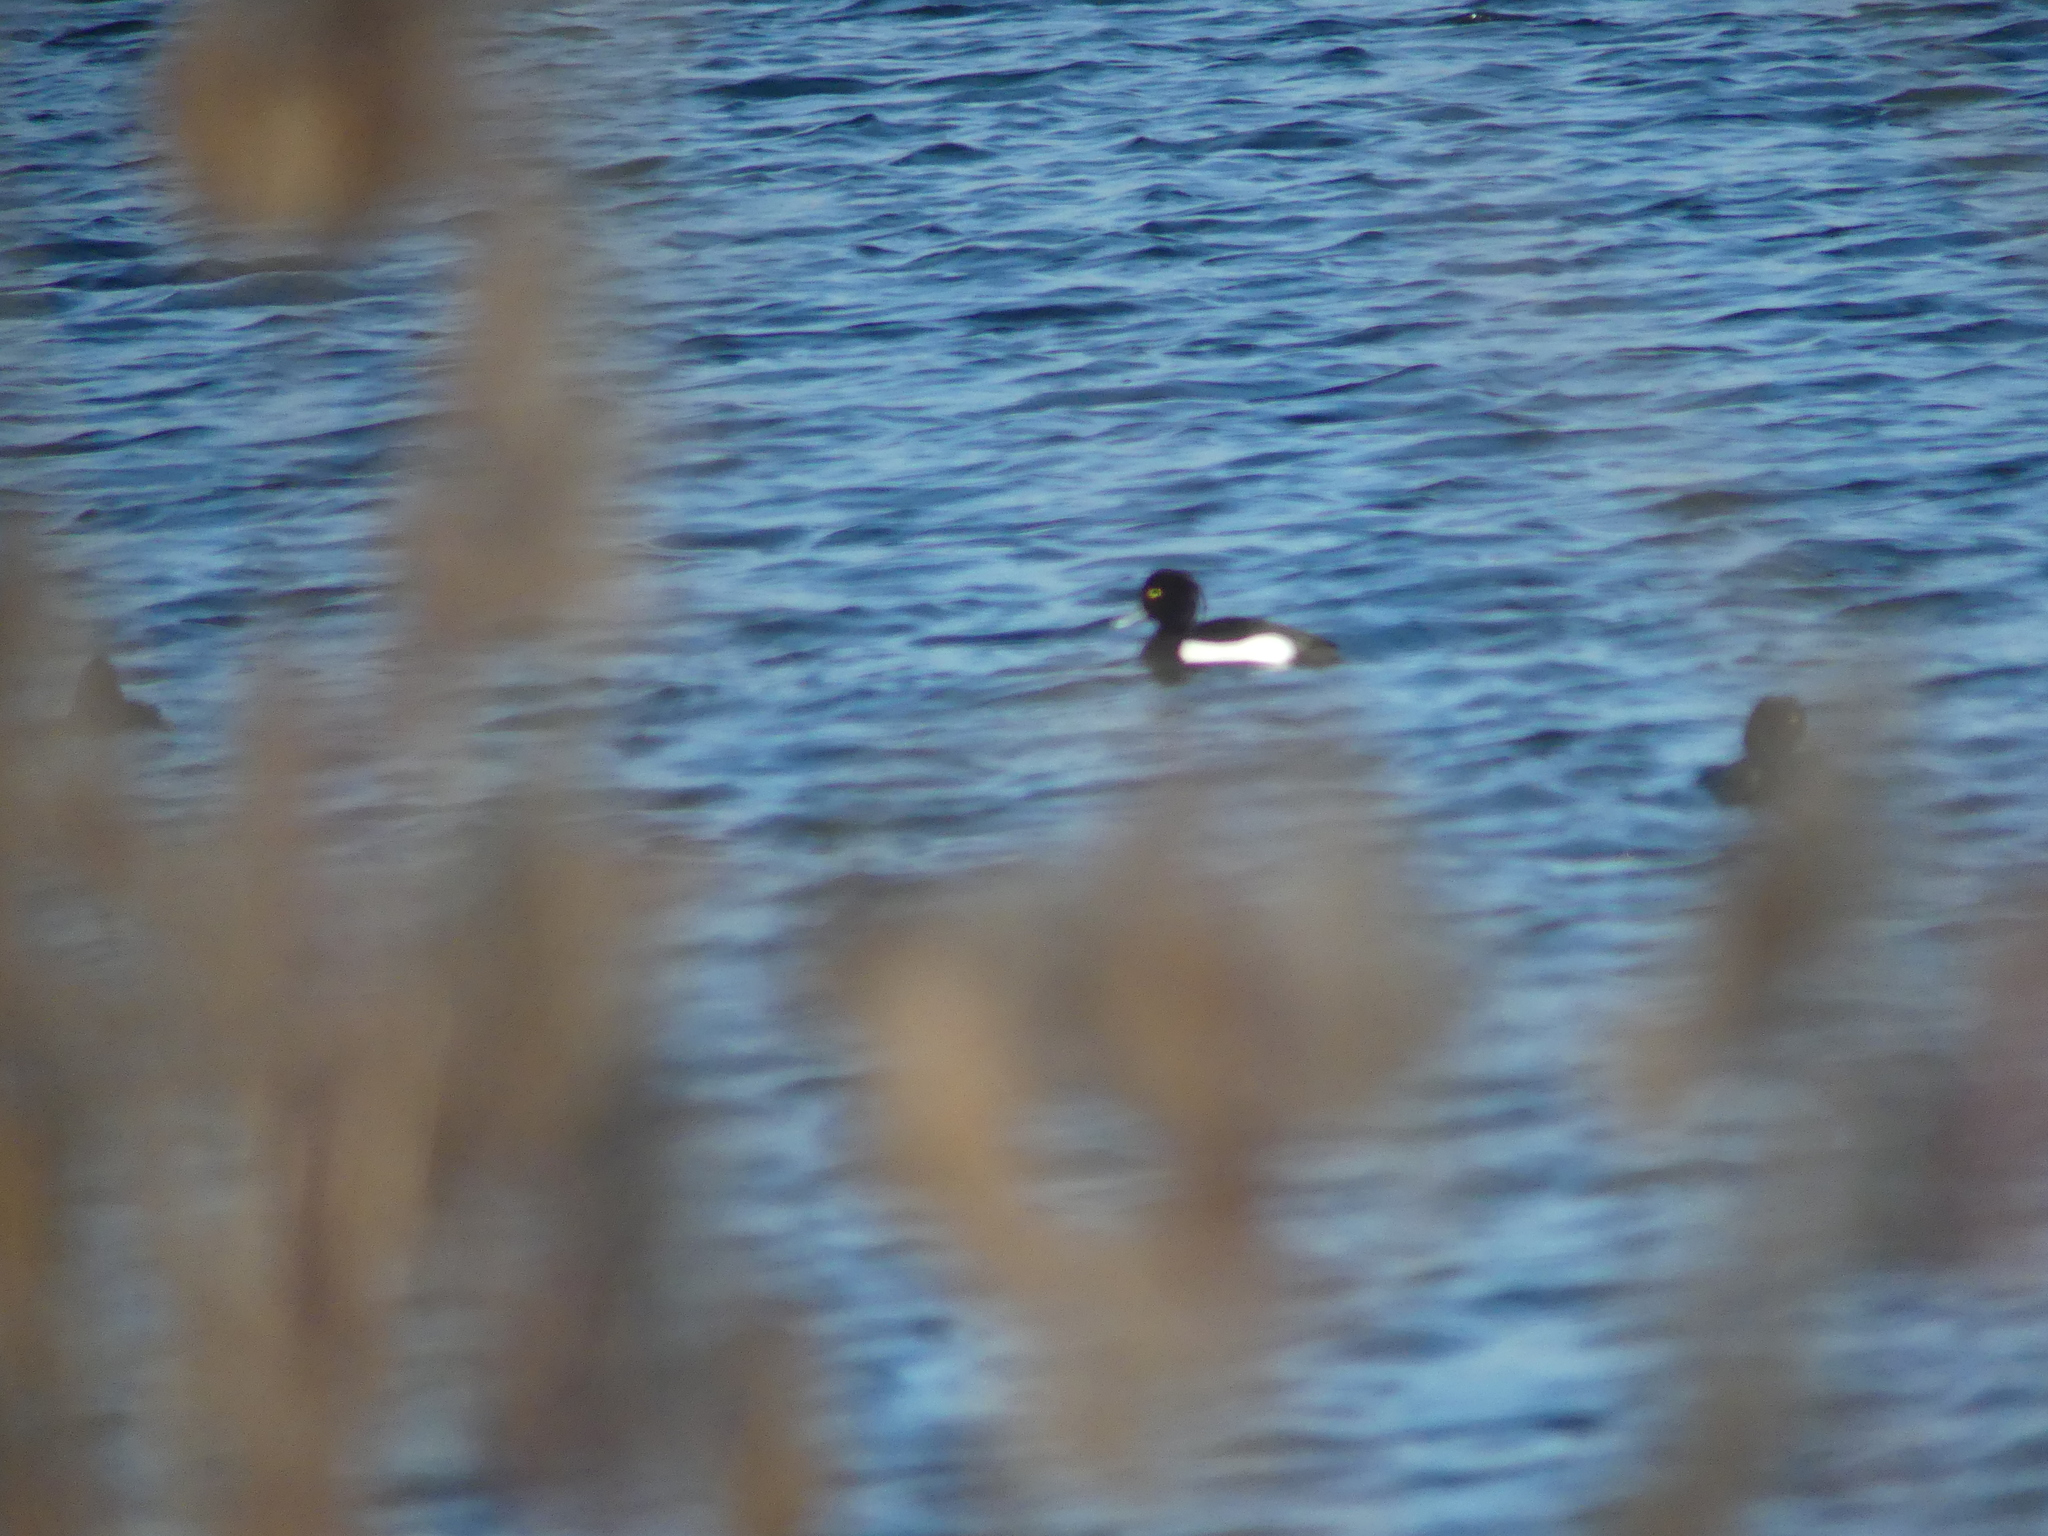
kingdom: Animalia
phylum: Chordata
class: Aves
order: Anseriformes
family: Anatidae
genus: Aythya
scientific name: Aythya fuligula
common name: Tufted duck
